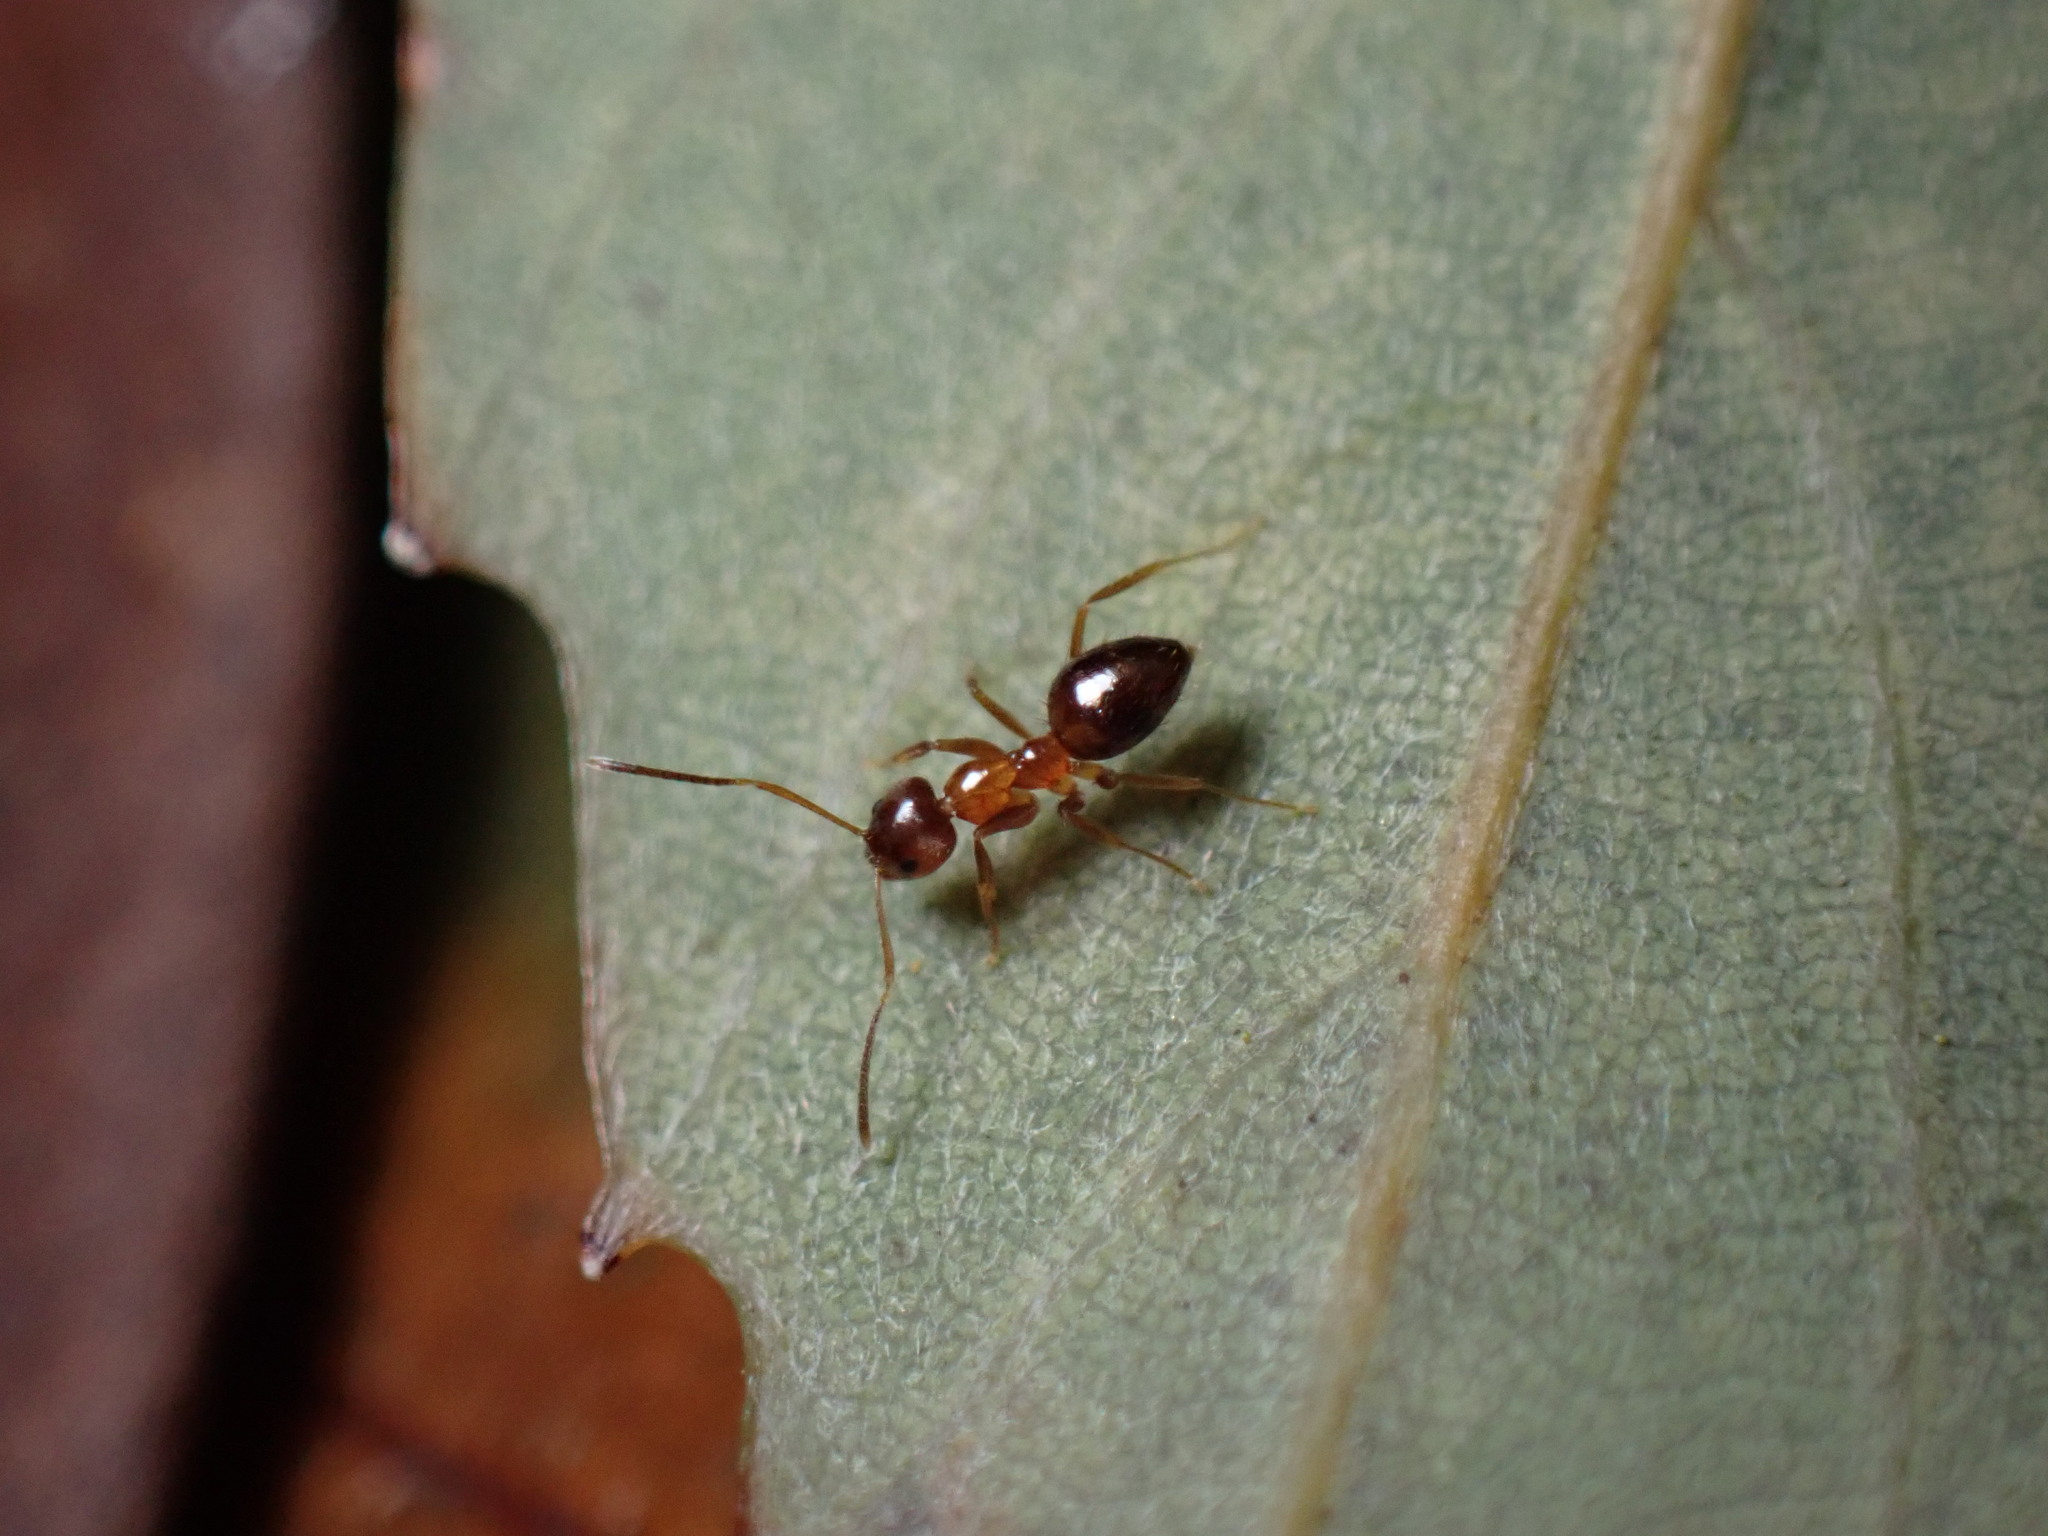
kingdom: Animalia
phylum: Arthropoda
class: Insecta
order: Hymenoptera
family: Formicidae
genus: Paratrechina
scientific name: Paratrechina flavipes
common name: Eastern asian formicine ant
